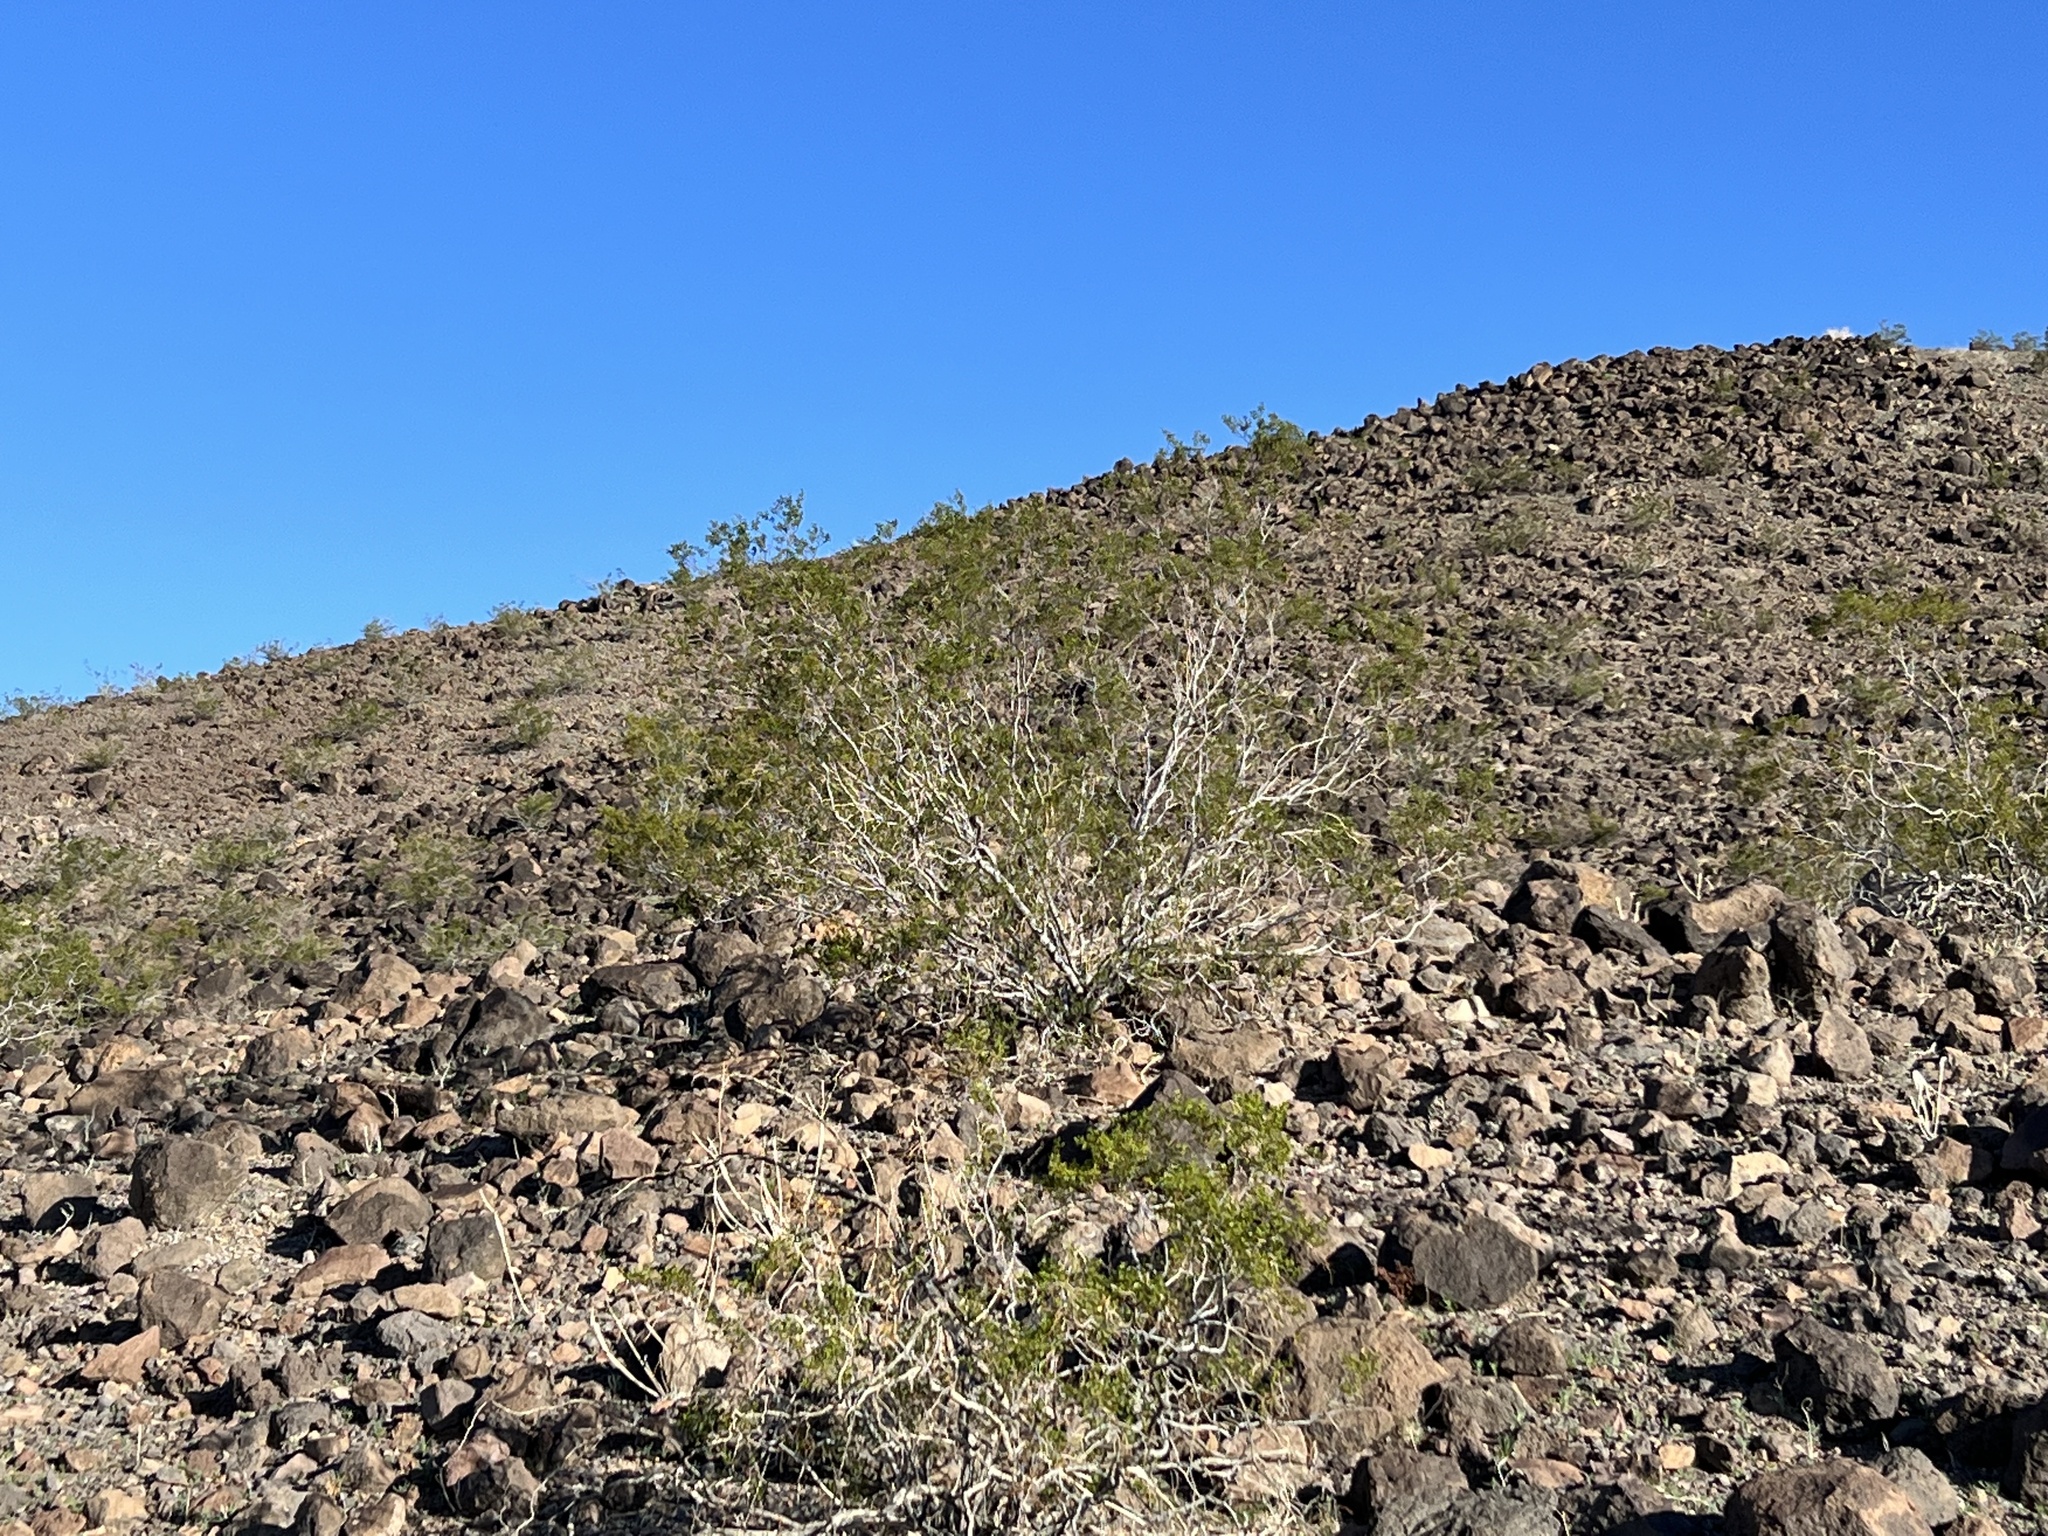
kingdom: Plantae
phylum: Tracheophyta
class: Magnoliopsida
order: Zygophyllales
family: Zygophyllaceae
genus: Larrea
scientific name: Larrea tridentata
